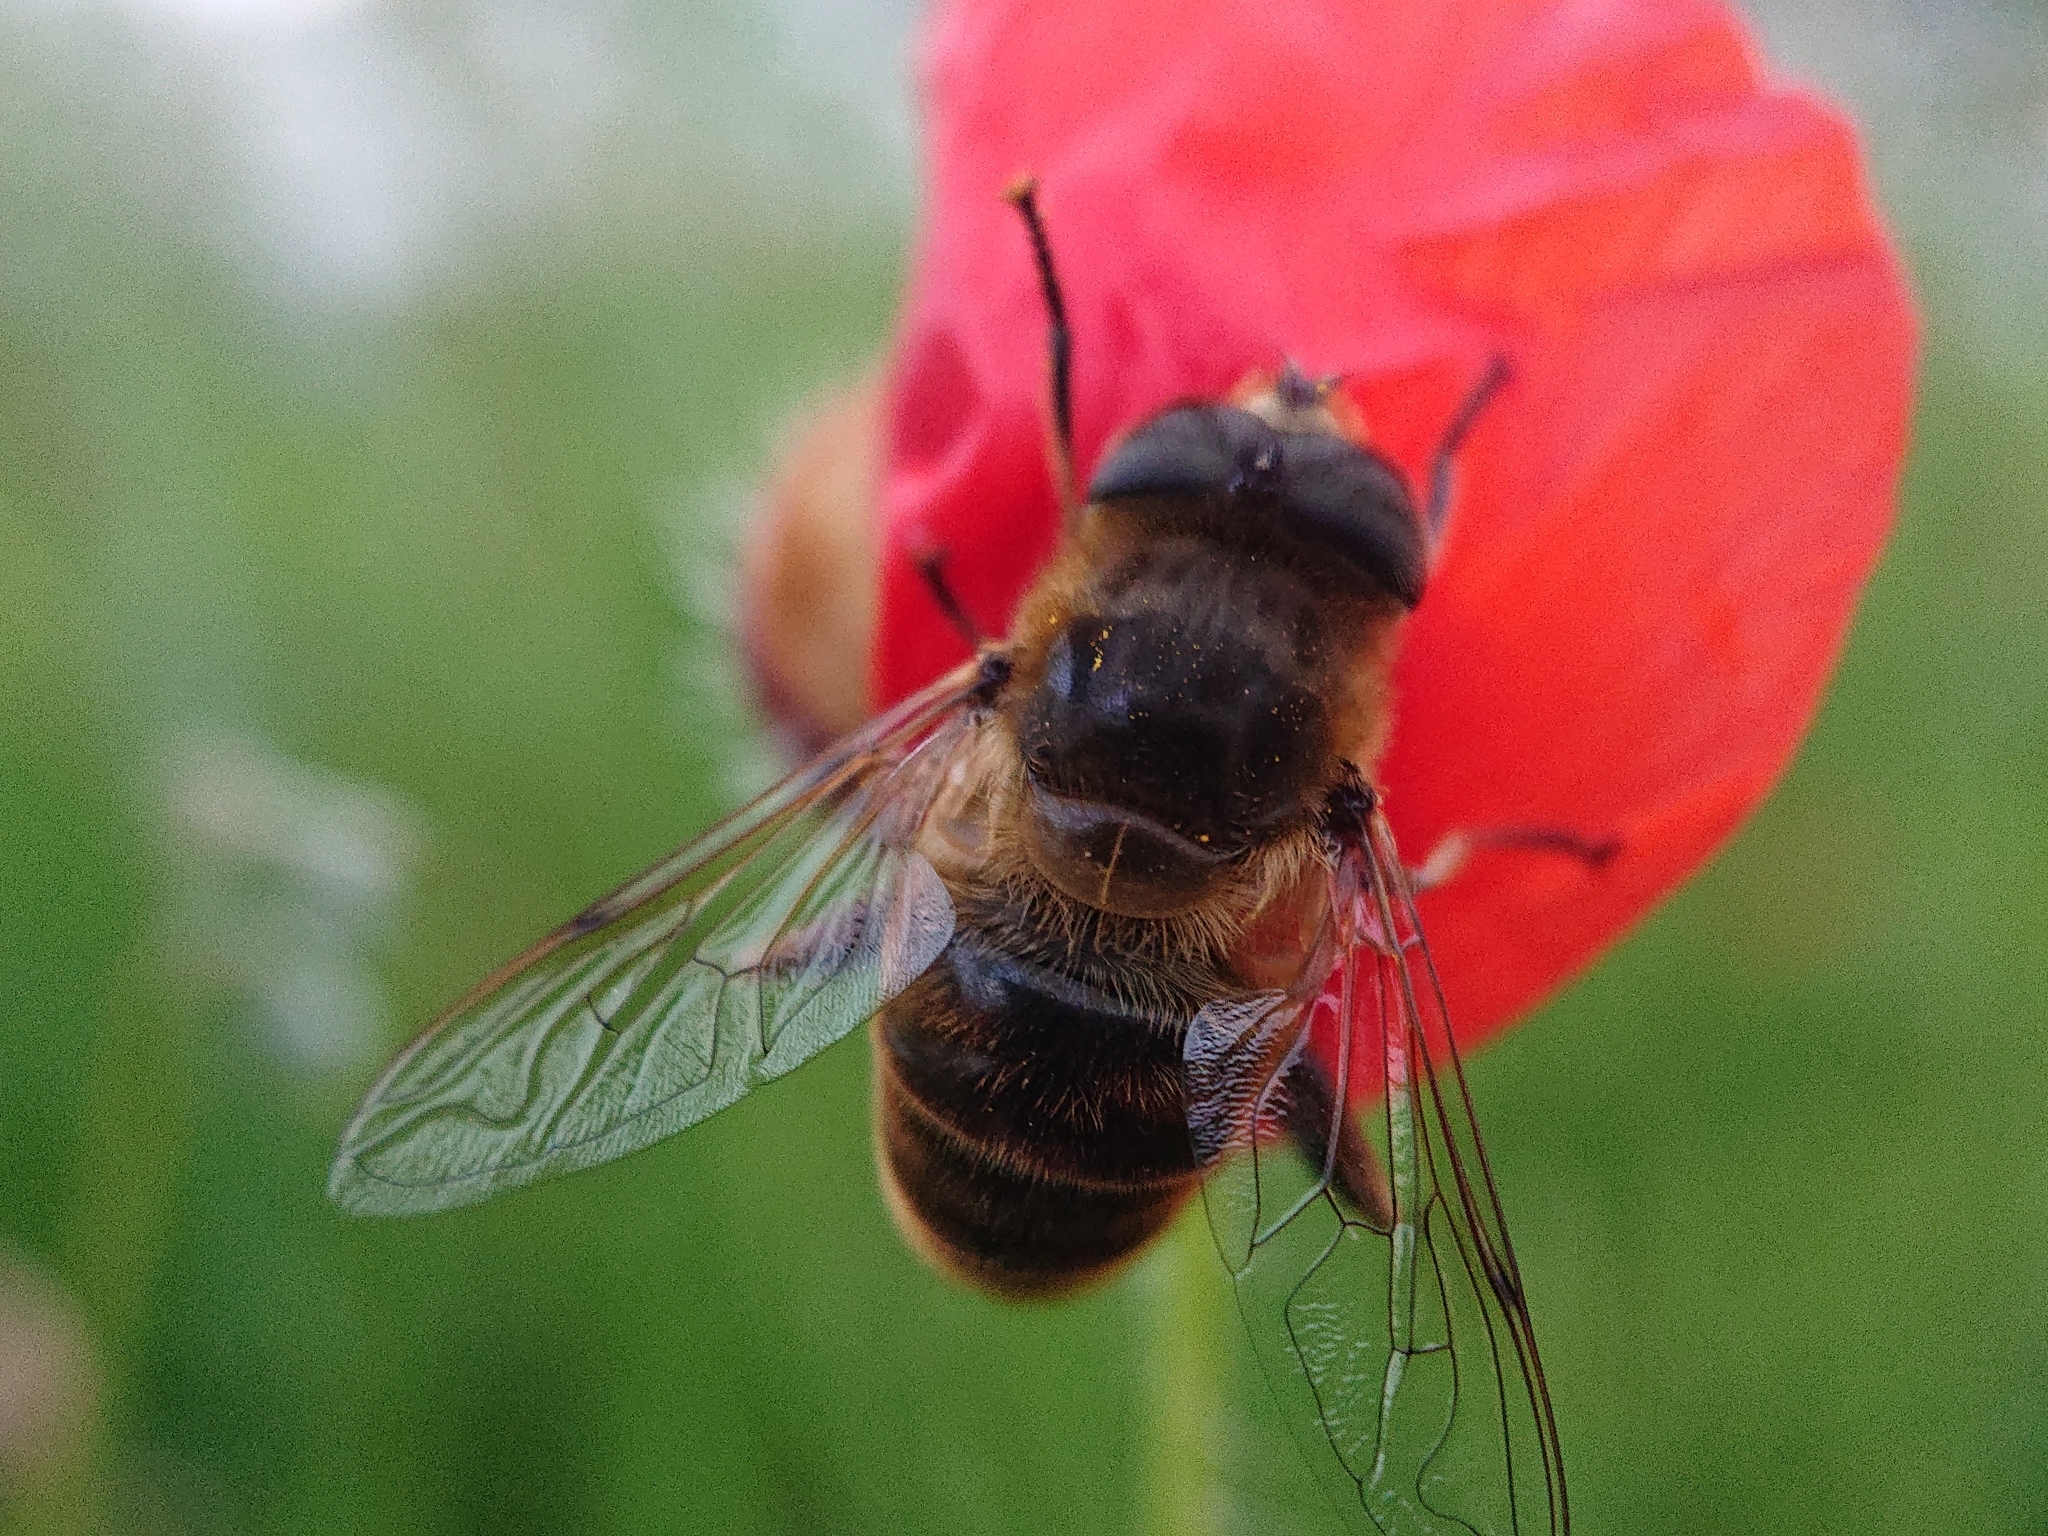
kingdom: Animalia
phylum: Arthropoda
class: Insecta
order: Diptera
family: Syrphidae
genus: Eristalis
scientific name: Eristalis tenax
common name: Drone fly
